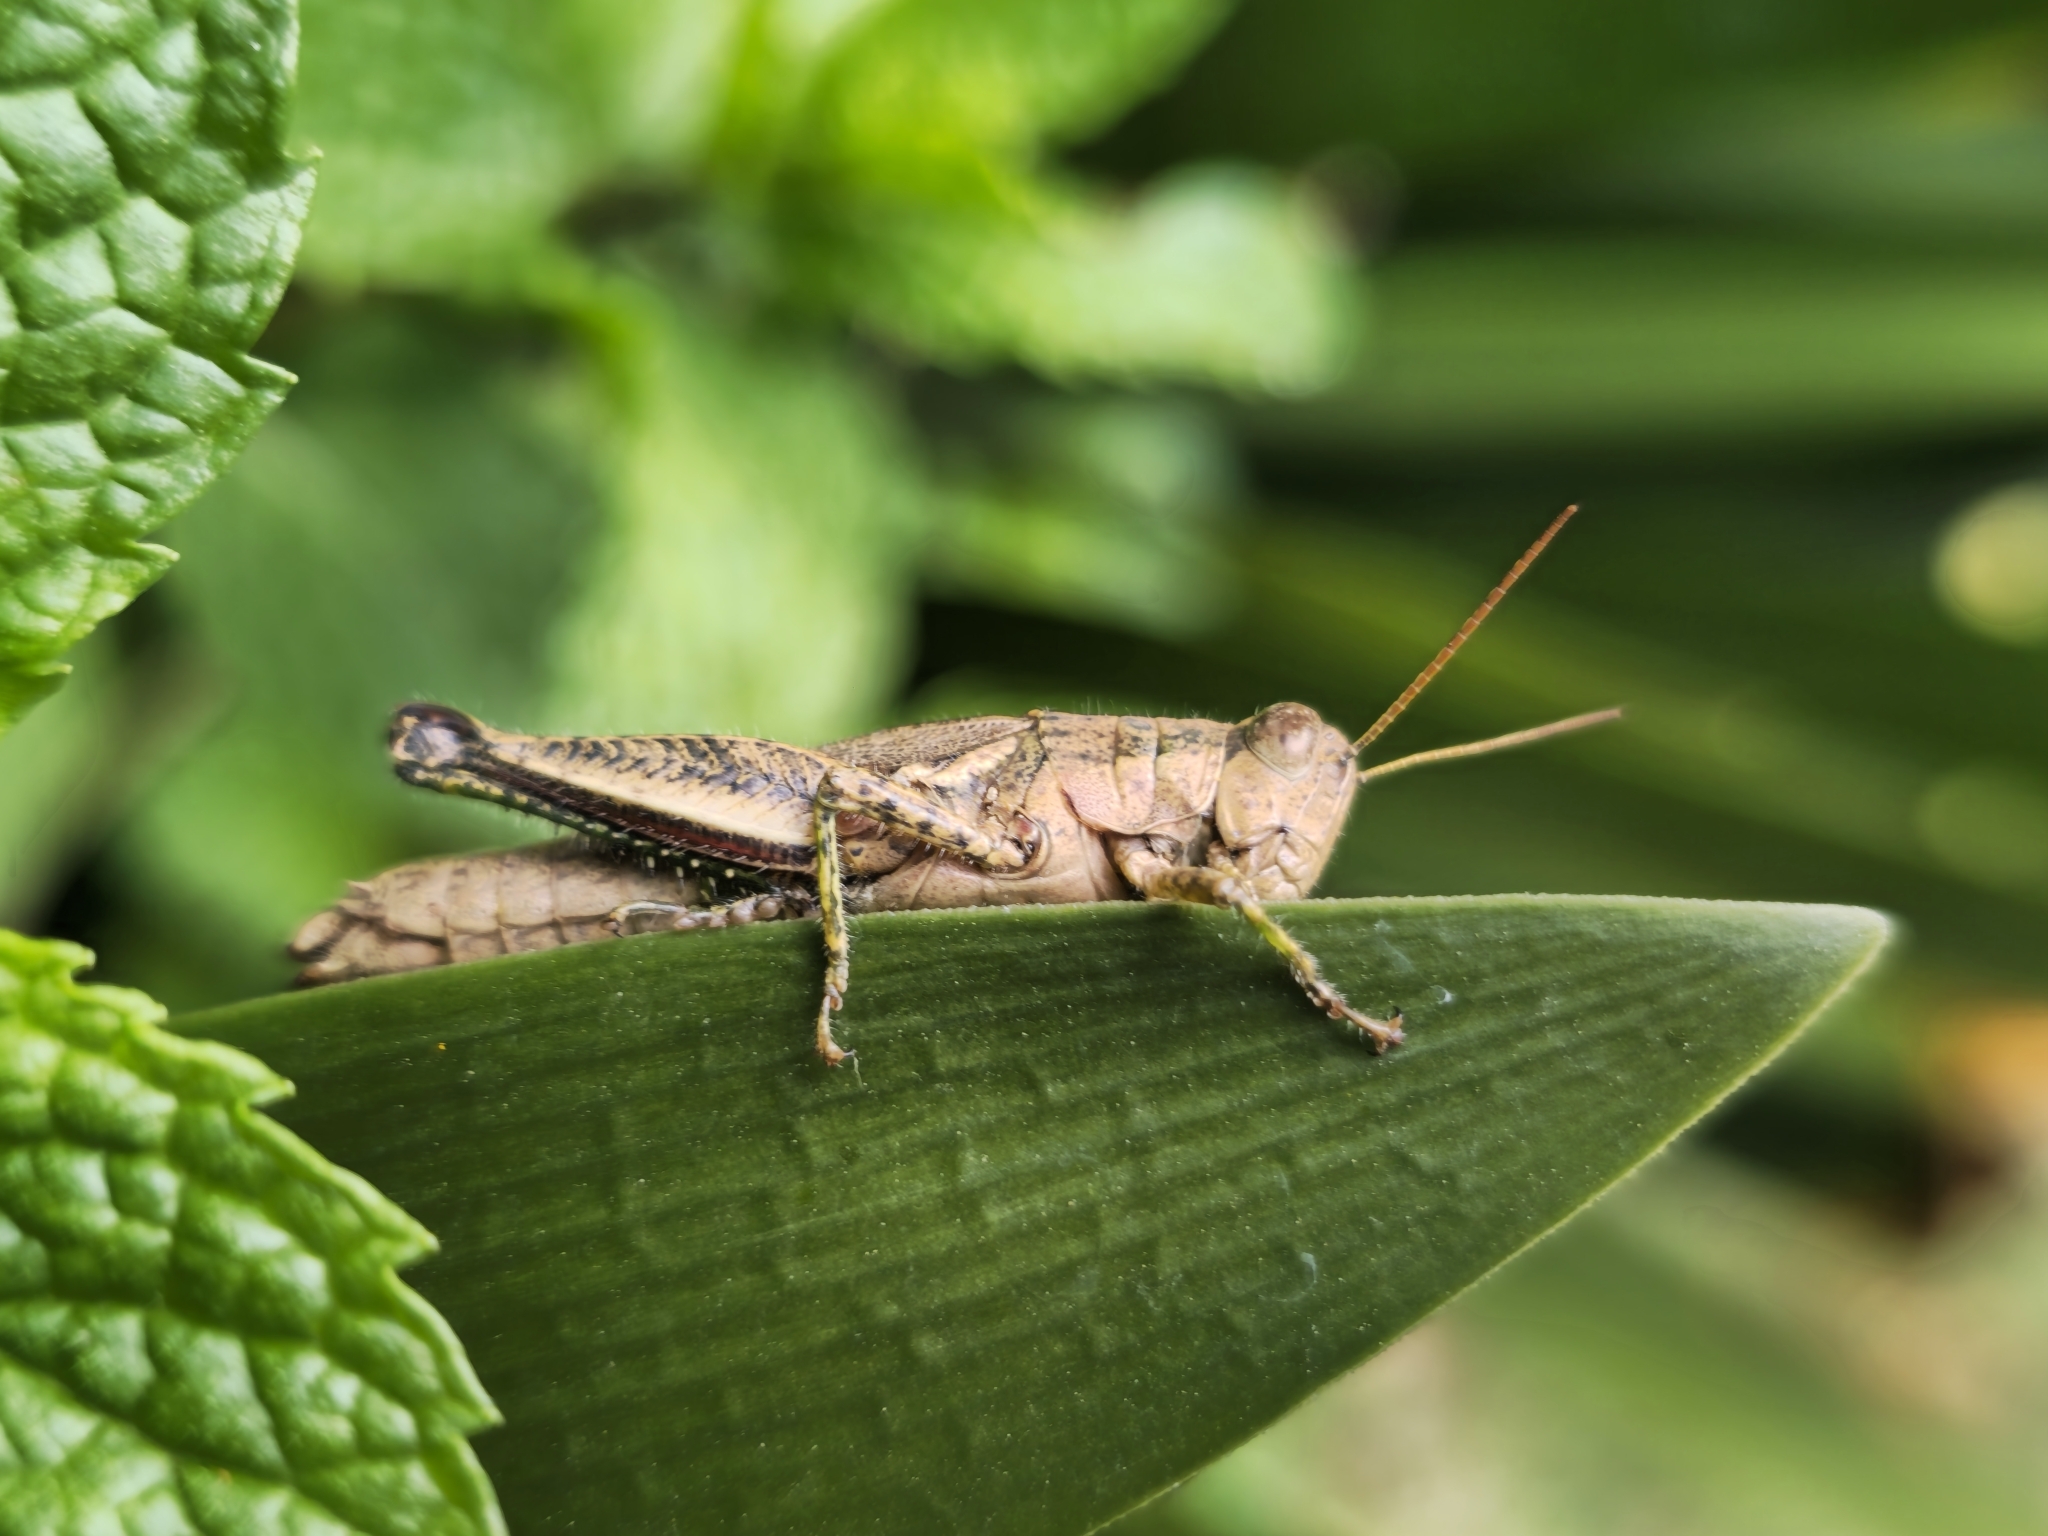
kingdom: Animalia
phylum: Arthropoda
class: Insecta
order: Orthoptera
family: Acrididae
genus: Dichroplus
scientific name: Dichroplus schulzi
